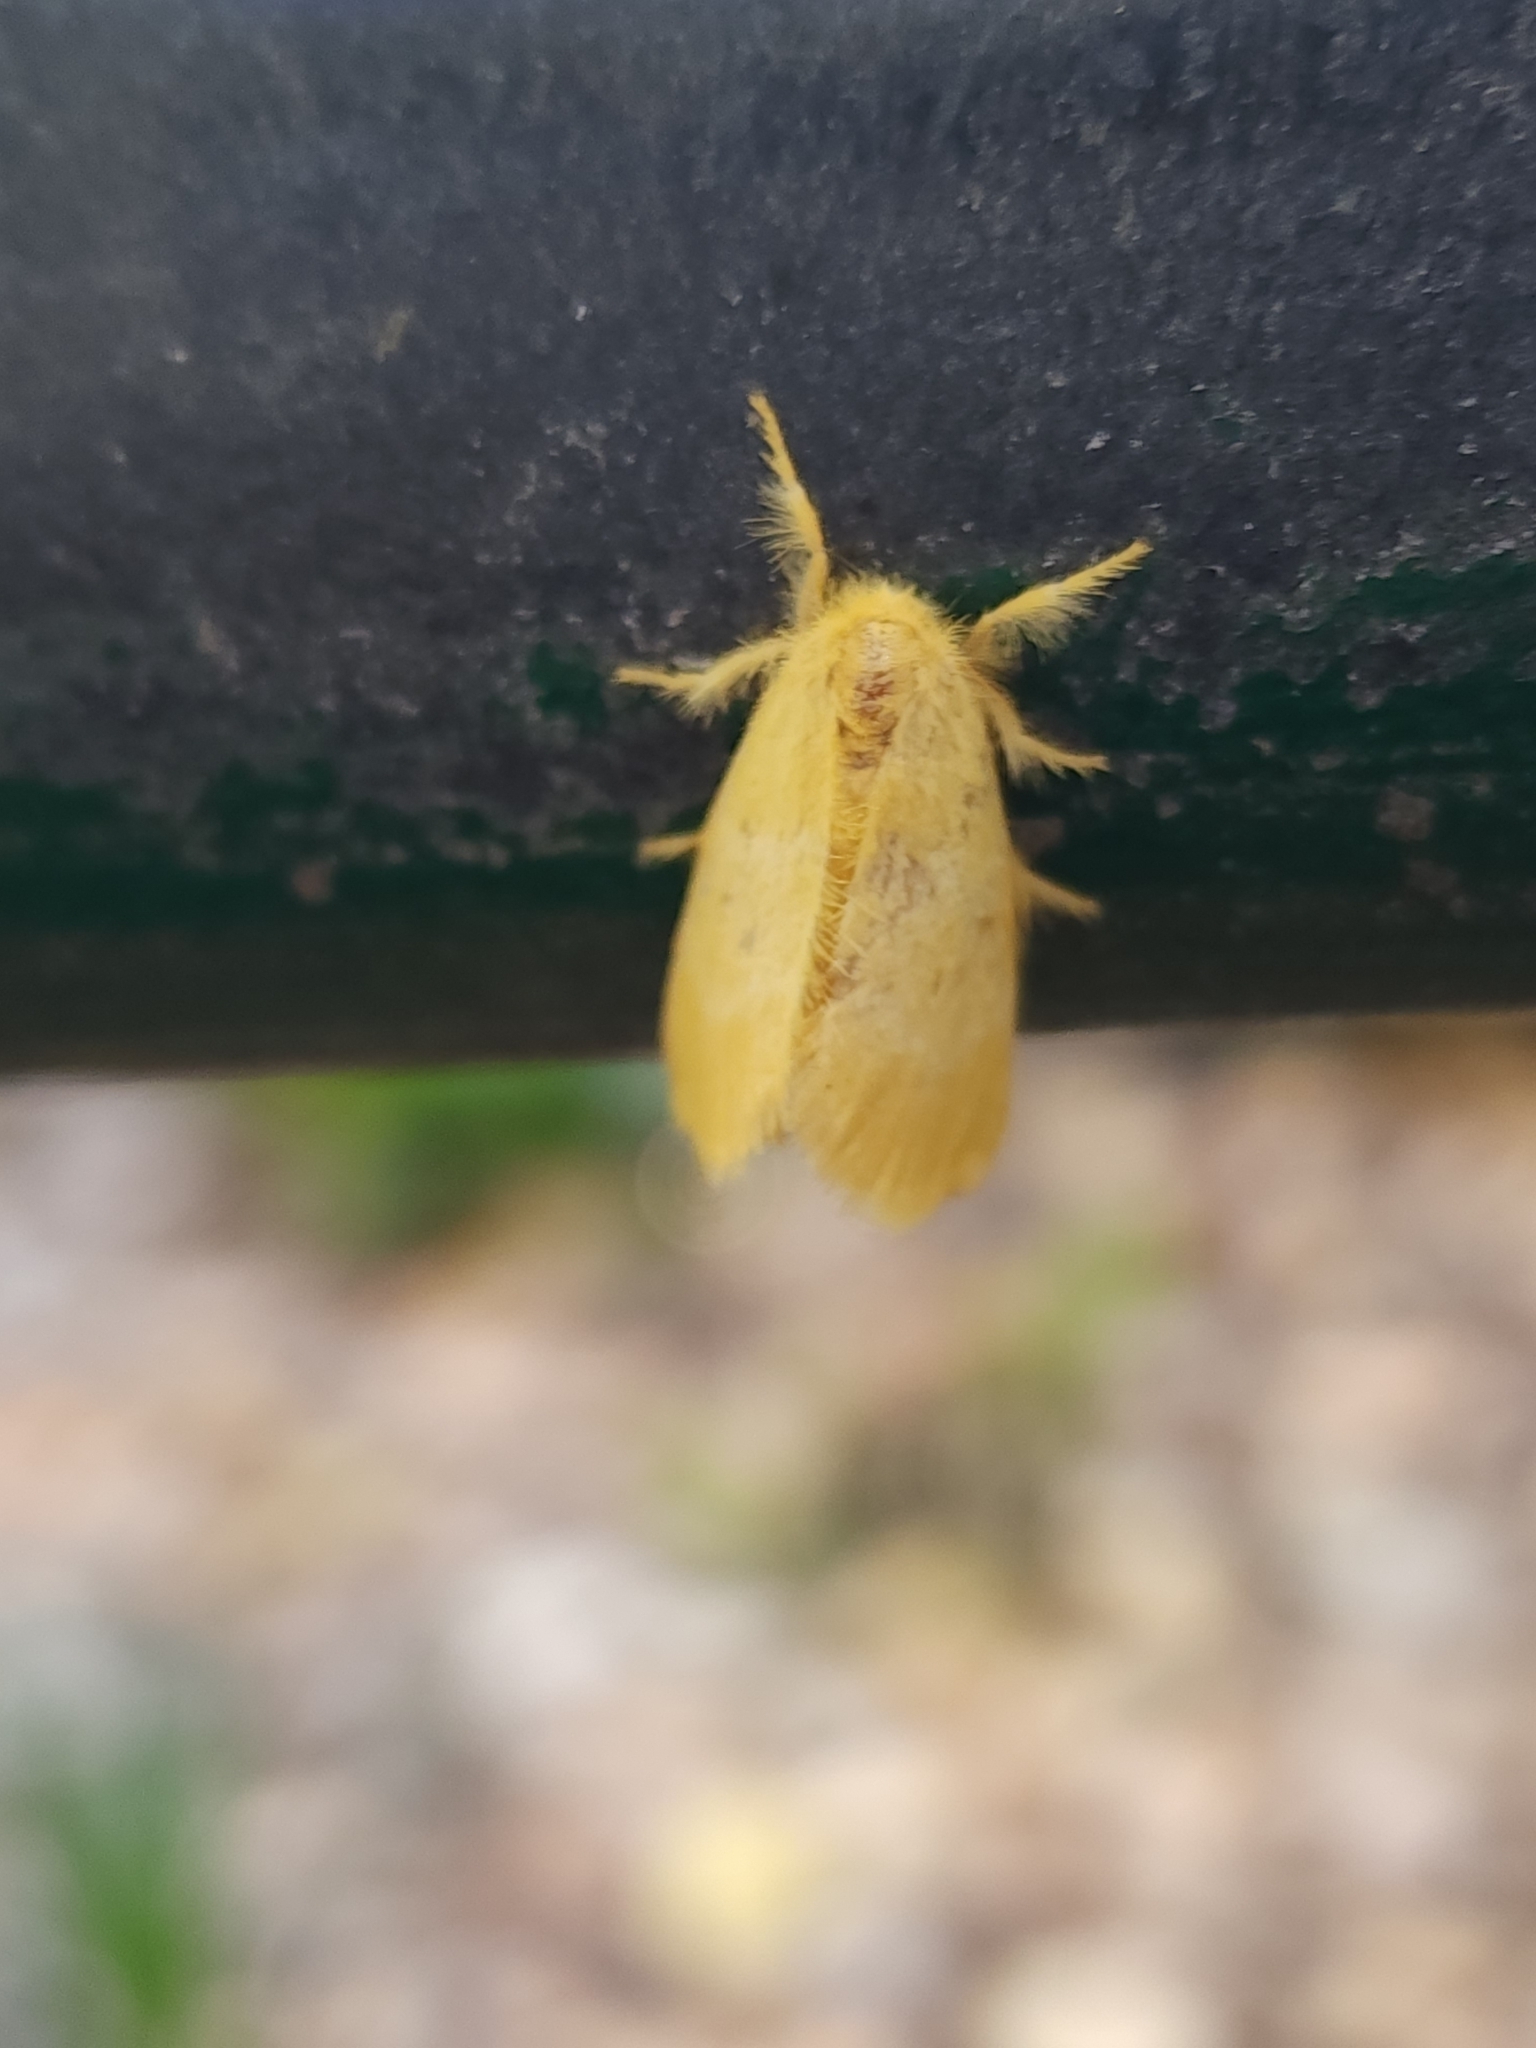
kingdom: Animalia
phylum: Arthropoda
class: Insecta
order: Lepidoptera
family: Erebidae
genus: Euproctis
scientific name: Euproctis lutea
